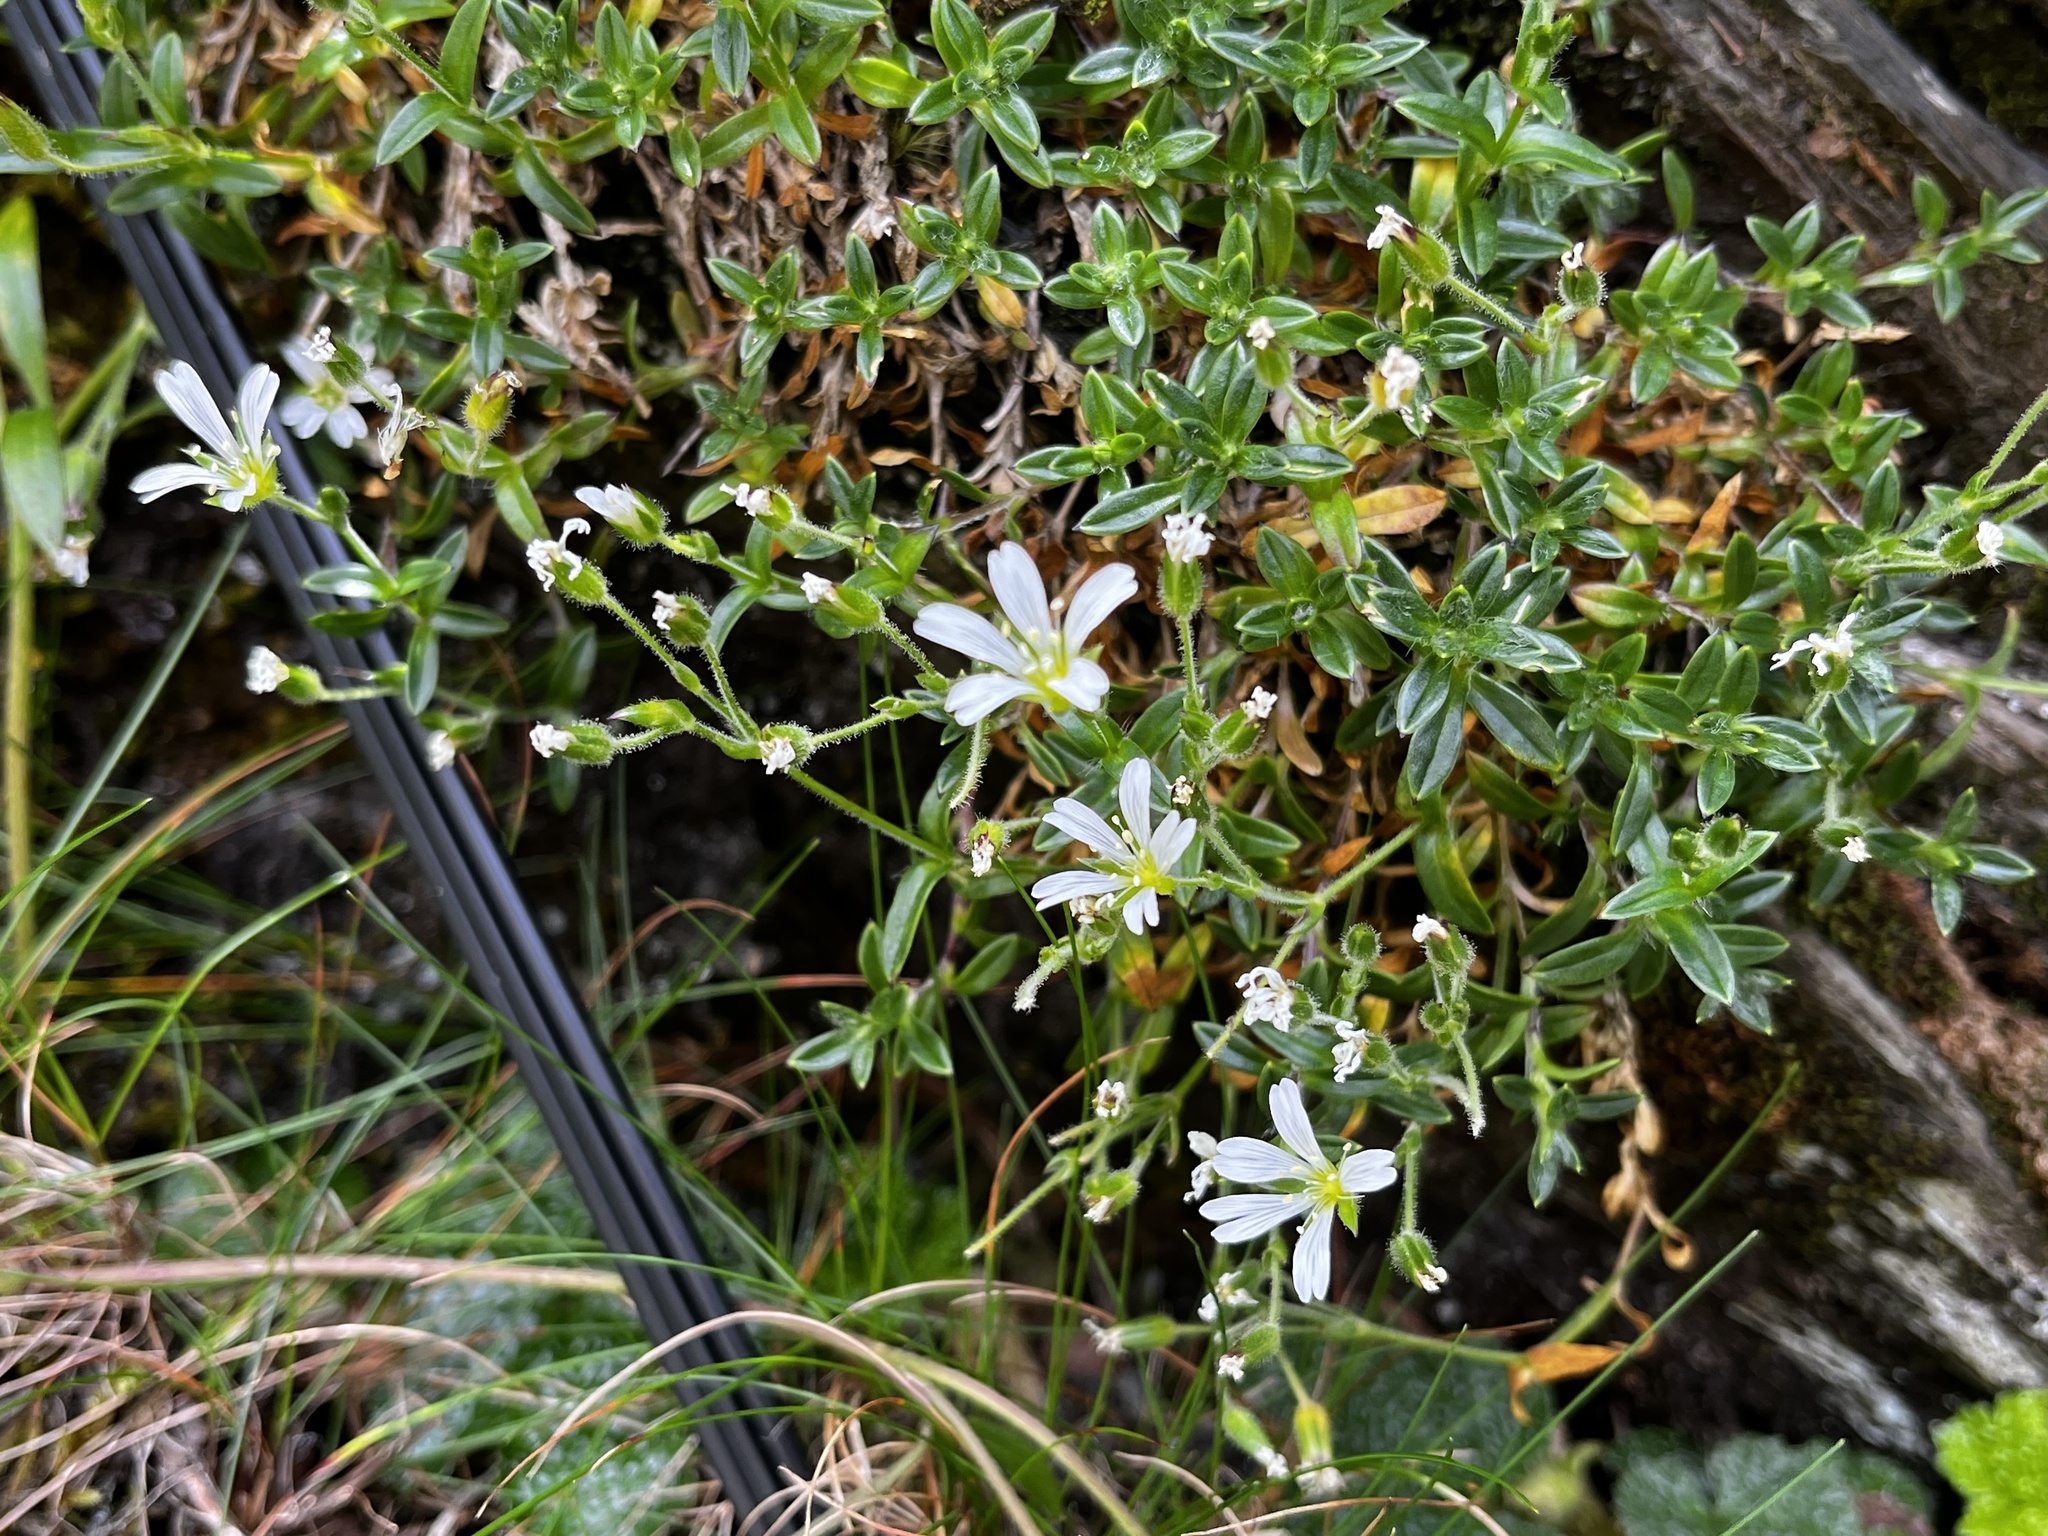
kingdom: Plantae
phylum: Tracheophyta
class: Magnoliopsida
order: Caryophyllales
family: Caryophyllaceae
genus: Cerastium
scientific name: Cerastium morrisonense
